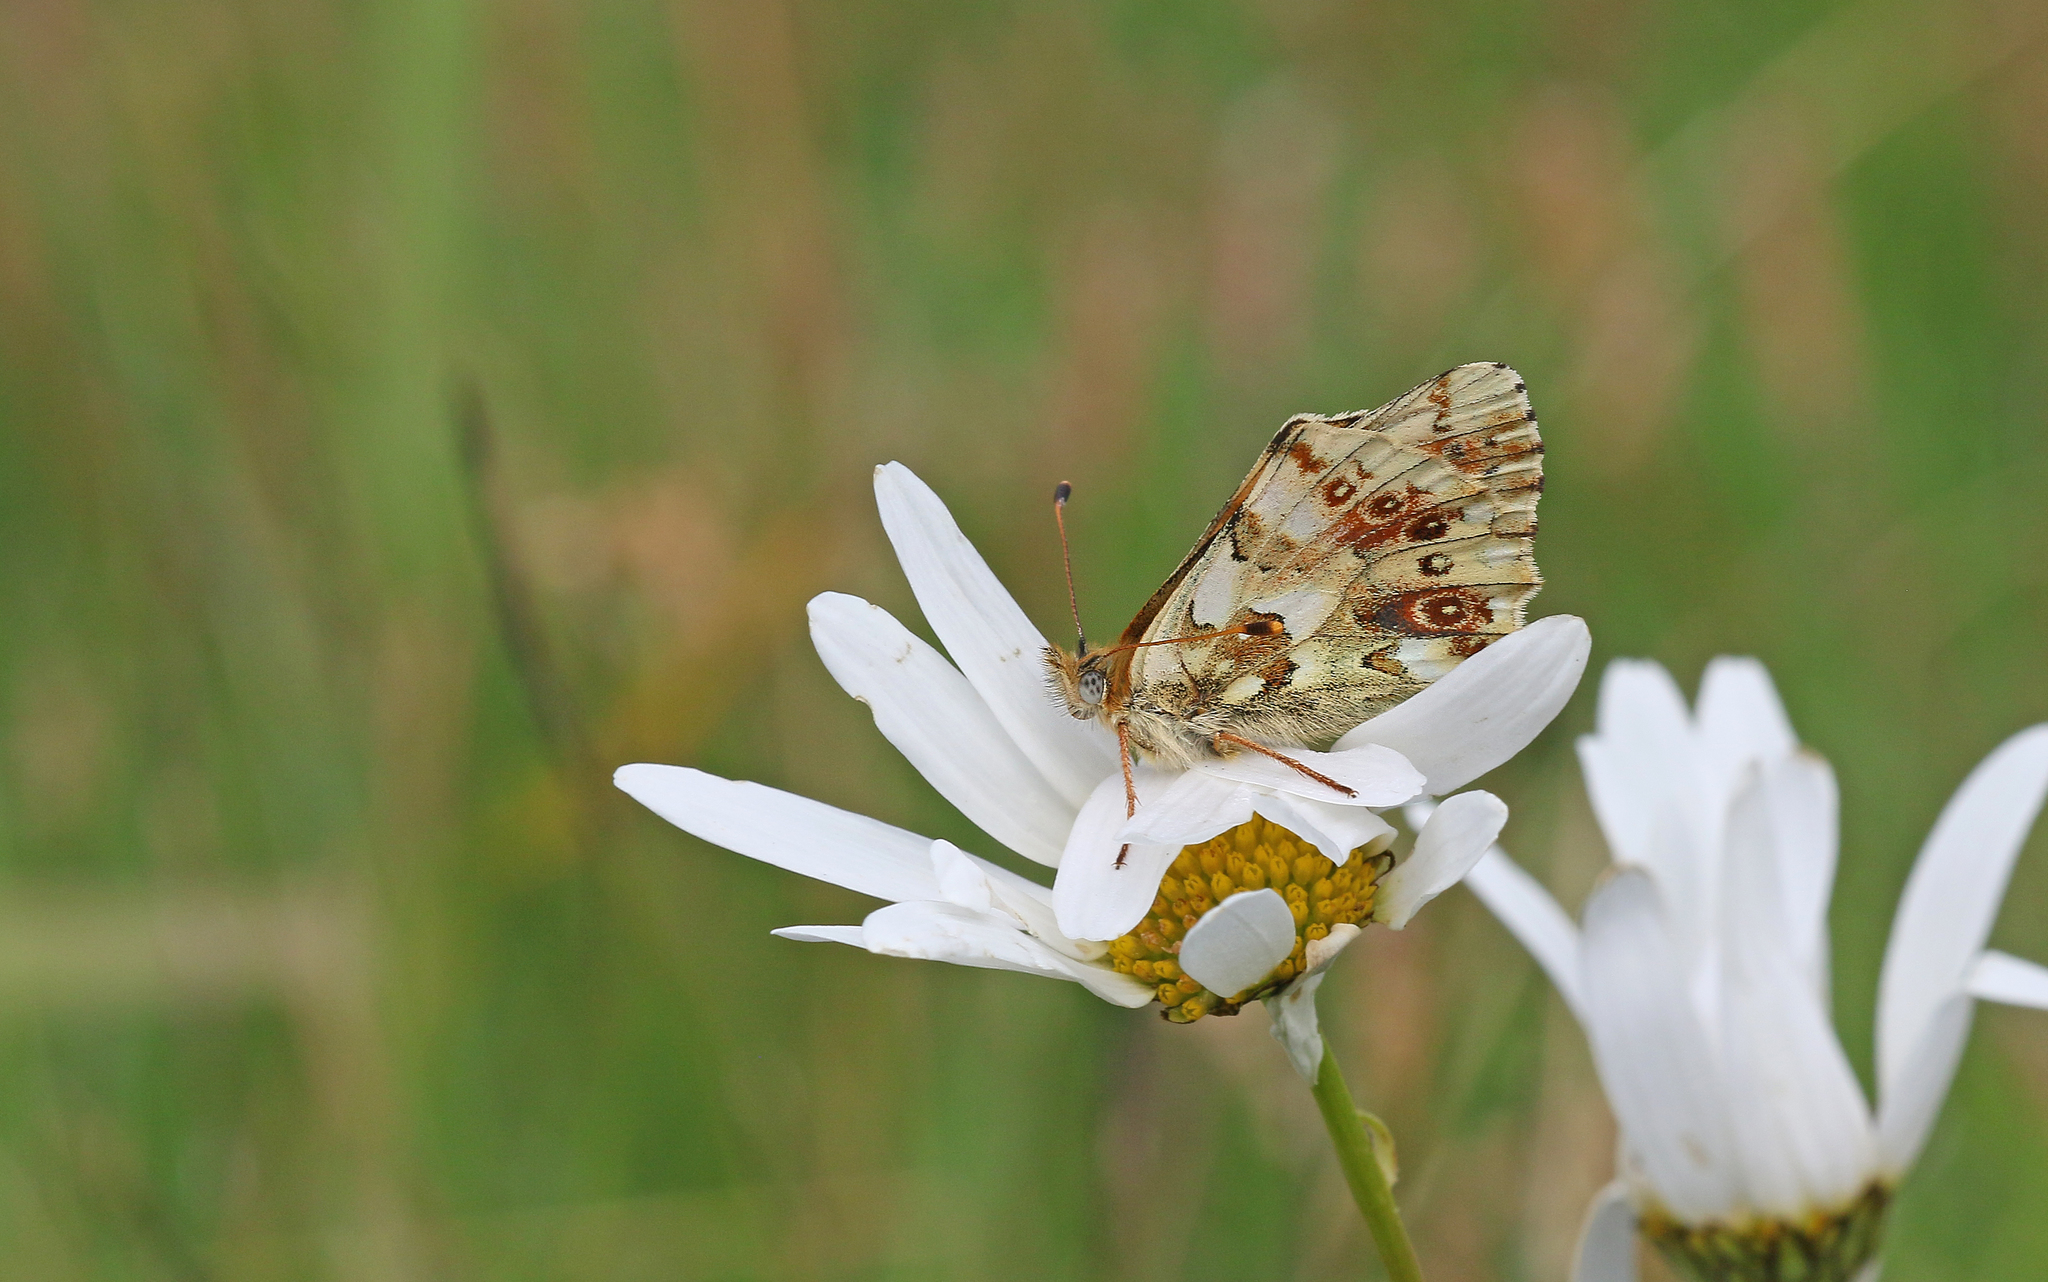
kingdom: Animalia
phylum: Arthropoda
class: Insecta
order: Lepidoptera
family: Nymphalidae
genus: Boloria
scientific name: Boloria graeca
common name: Balkan fritillary
